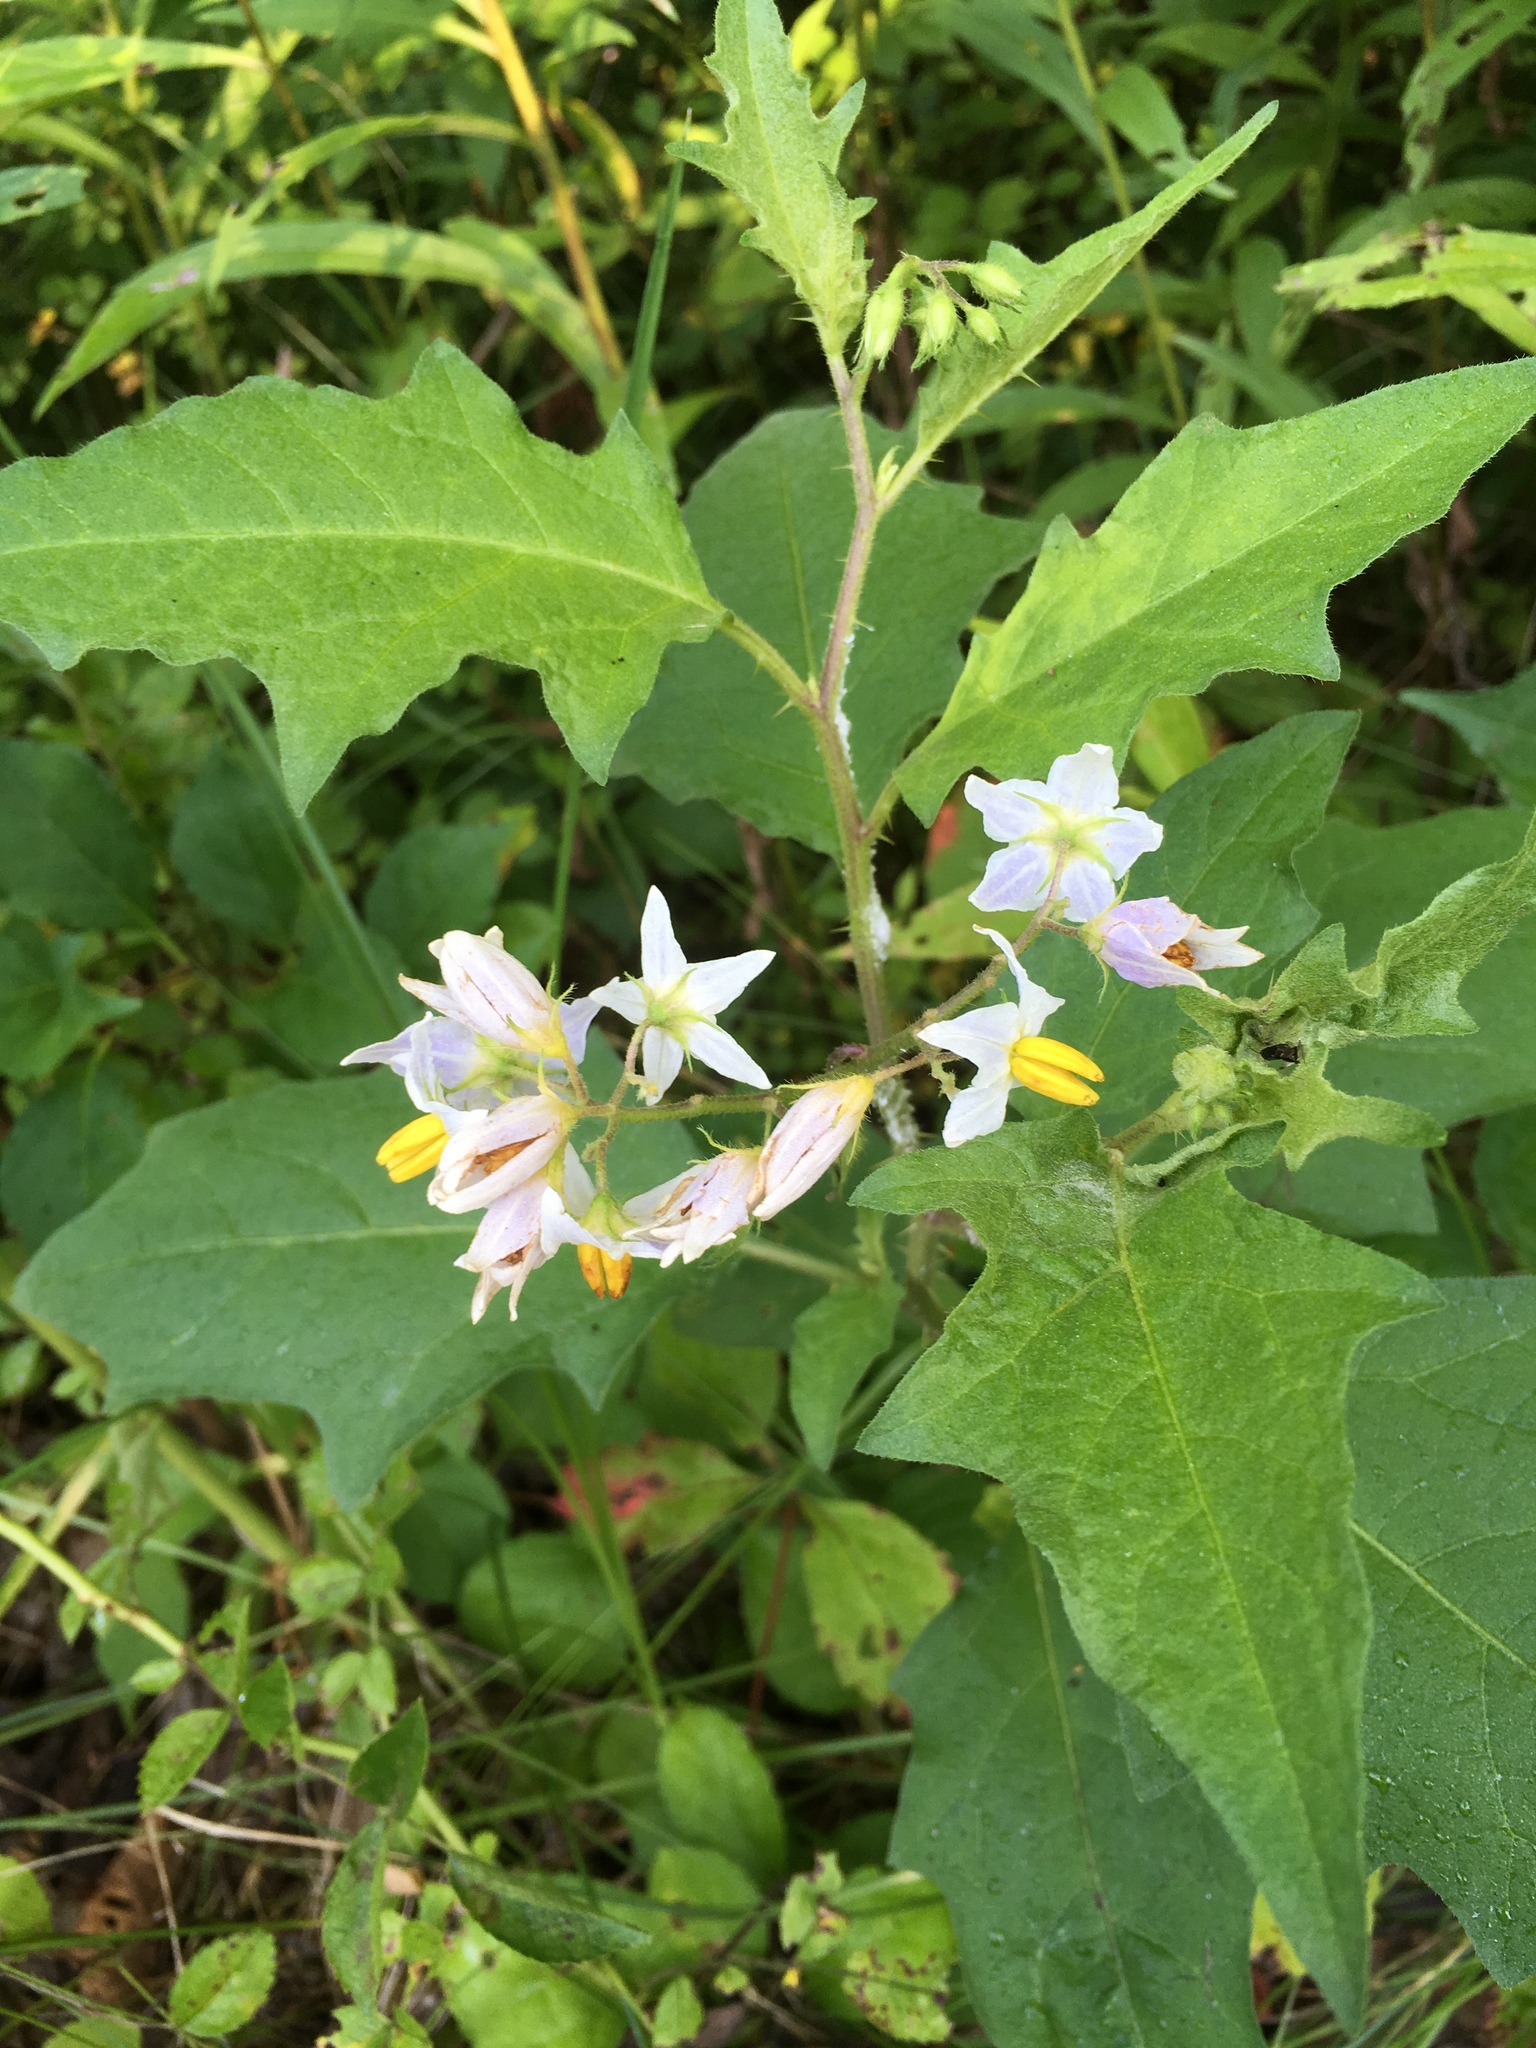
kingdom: Plantae
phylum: Tracheophyta
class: Magnoliopsida
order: Solanales
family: Solanaceae
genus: Solanum
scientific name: Solanum carolinense
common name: Horse-nettle
